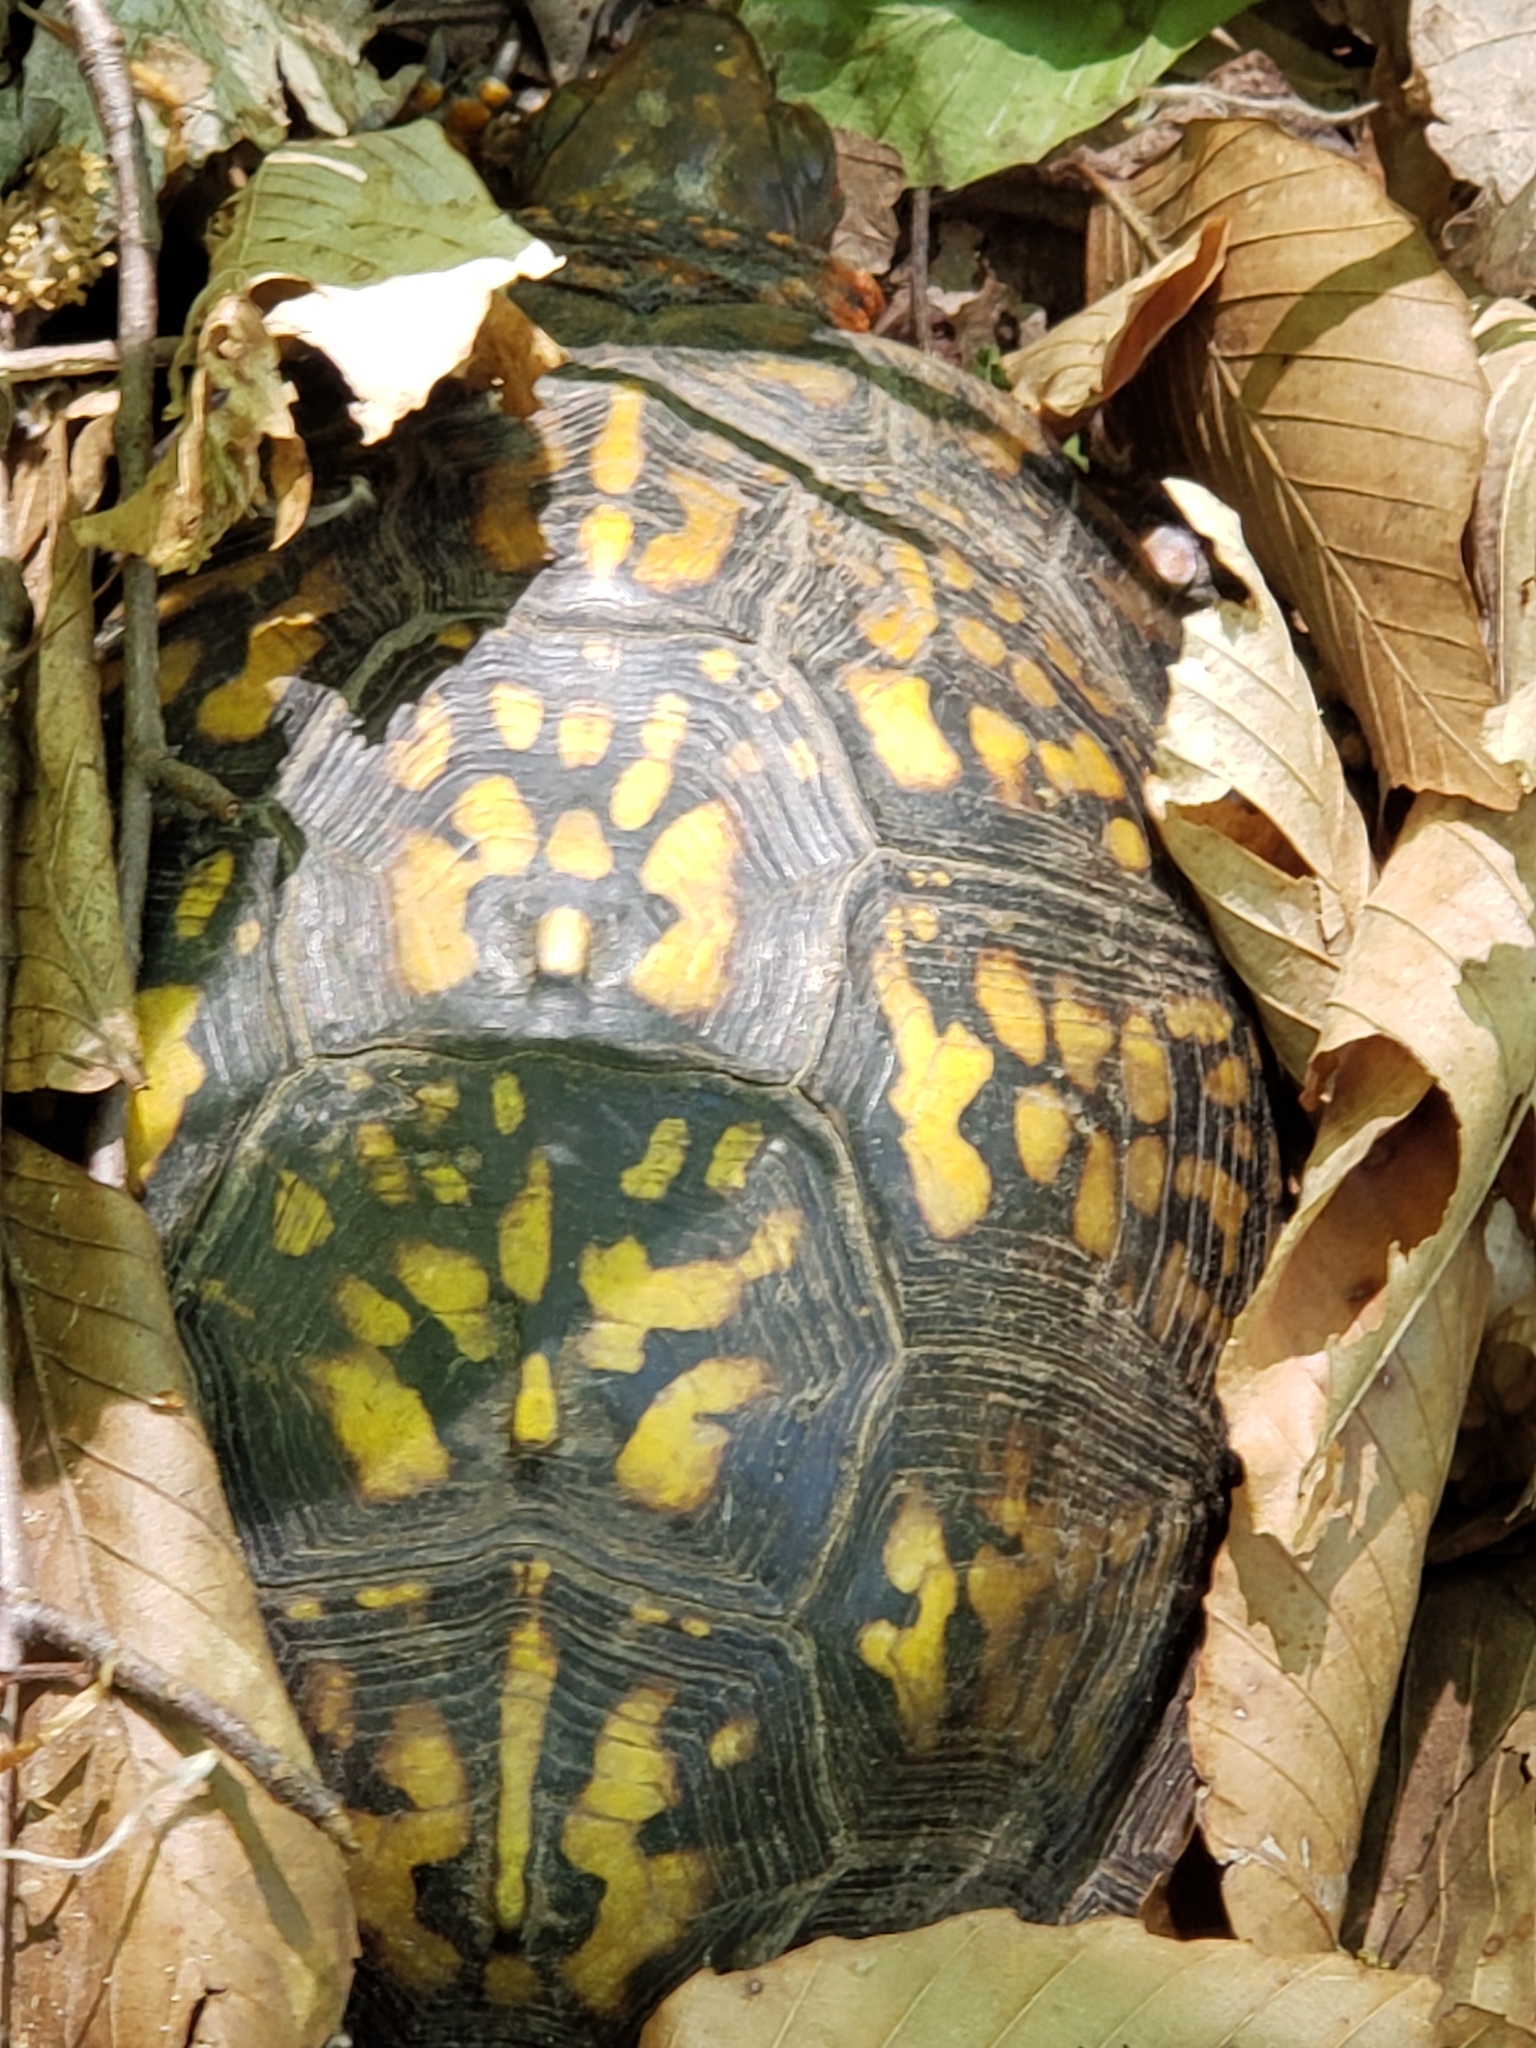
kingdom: Animalia
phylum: Chordata
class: Testudines
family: Emydidae
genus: Terrapene
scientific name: Terrapene carolina
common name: Common box turtle
